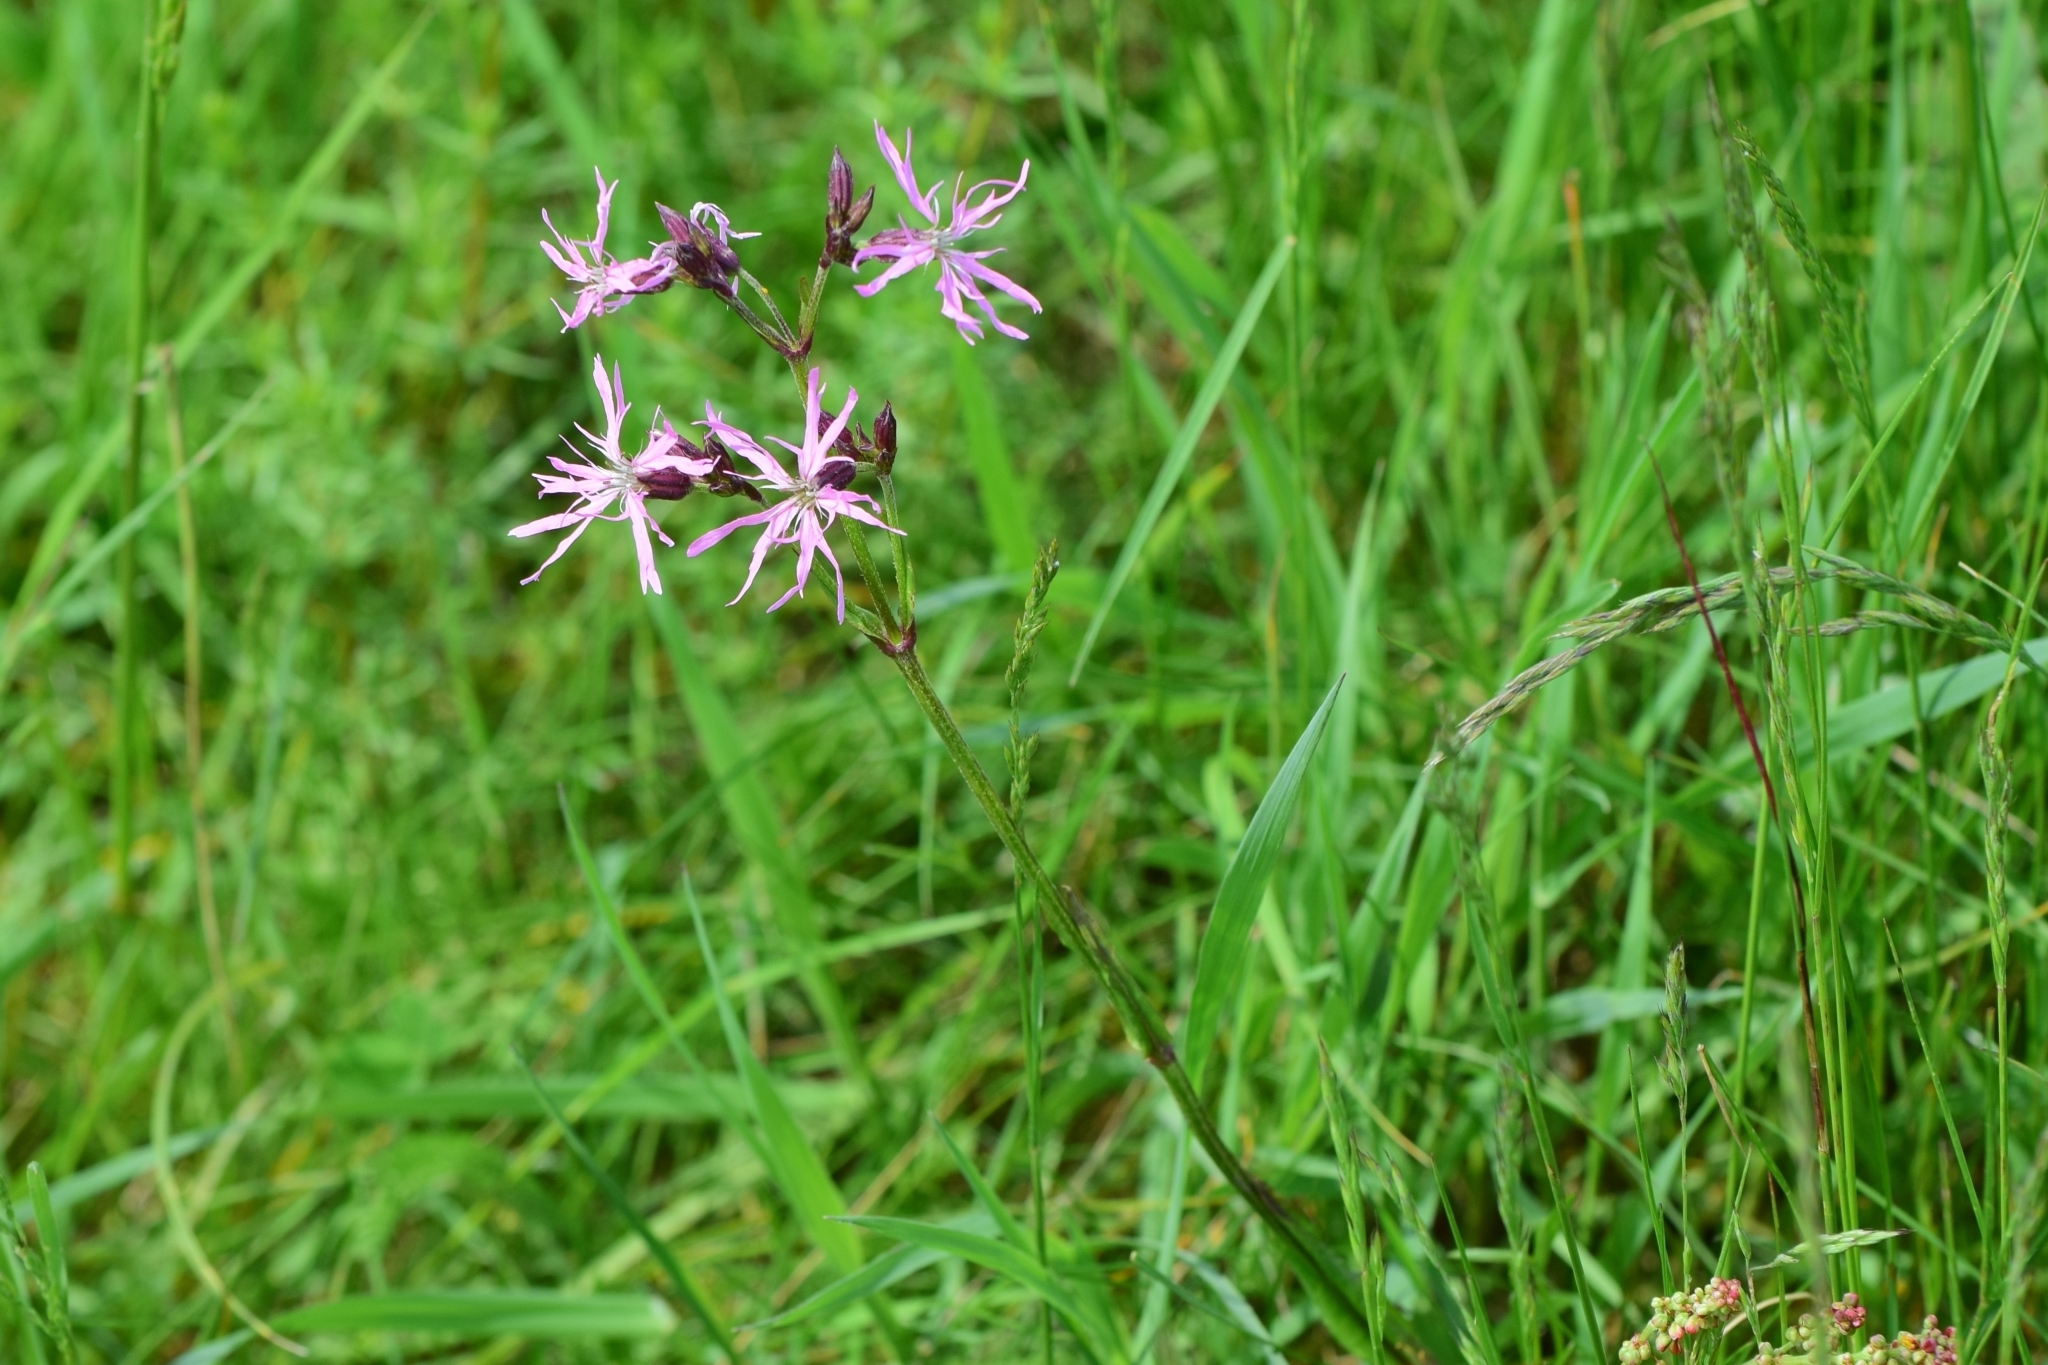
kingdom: Plantae
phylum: Tracheophyta
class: Magnoliopsida
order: Caryophyllales
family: Caryophyllaceae
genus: Silene
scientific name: Silene flos-cuculi
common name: Ragged-robin
